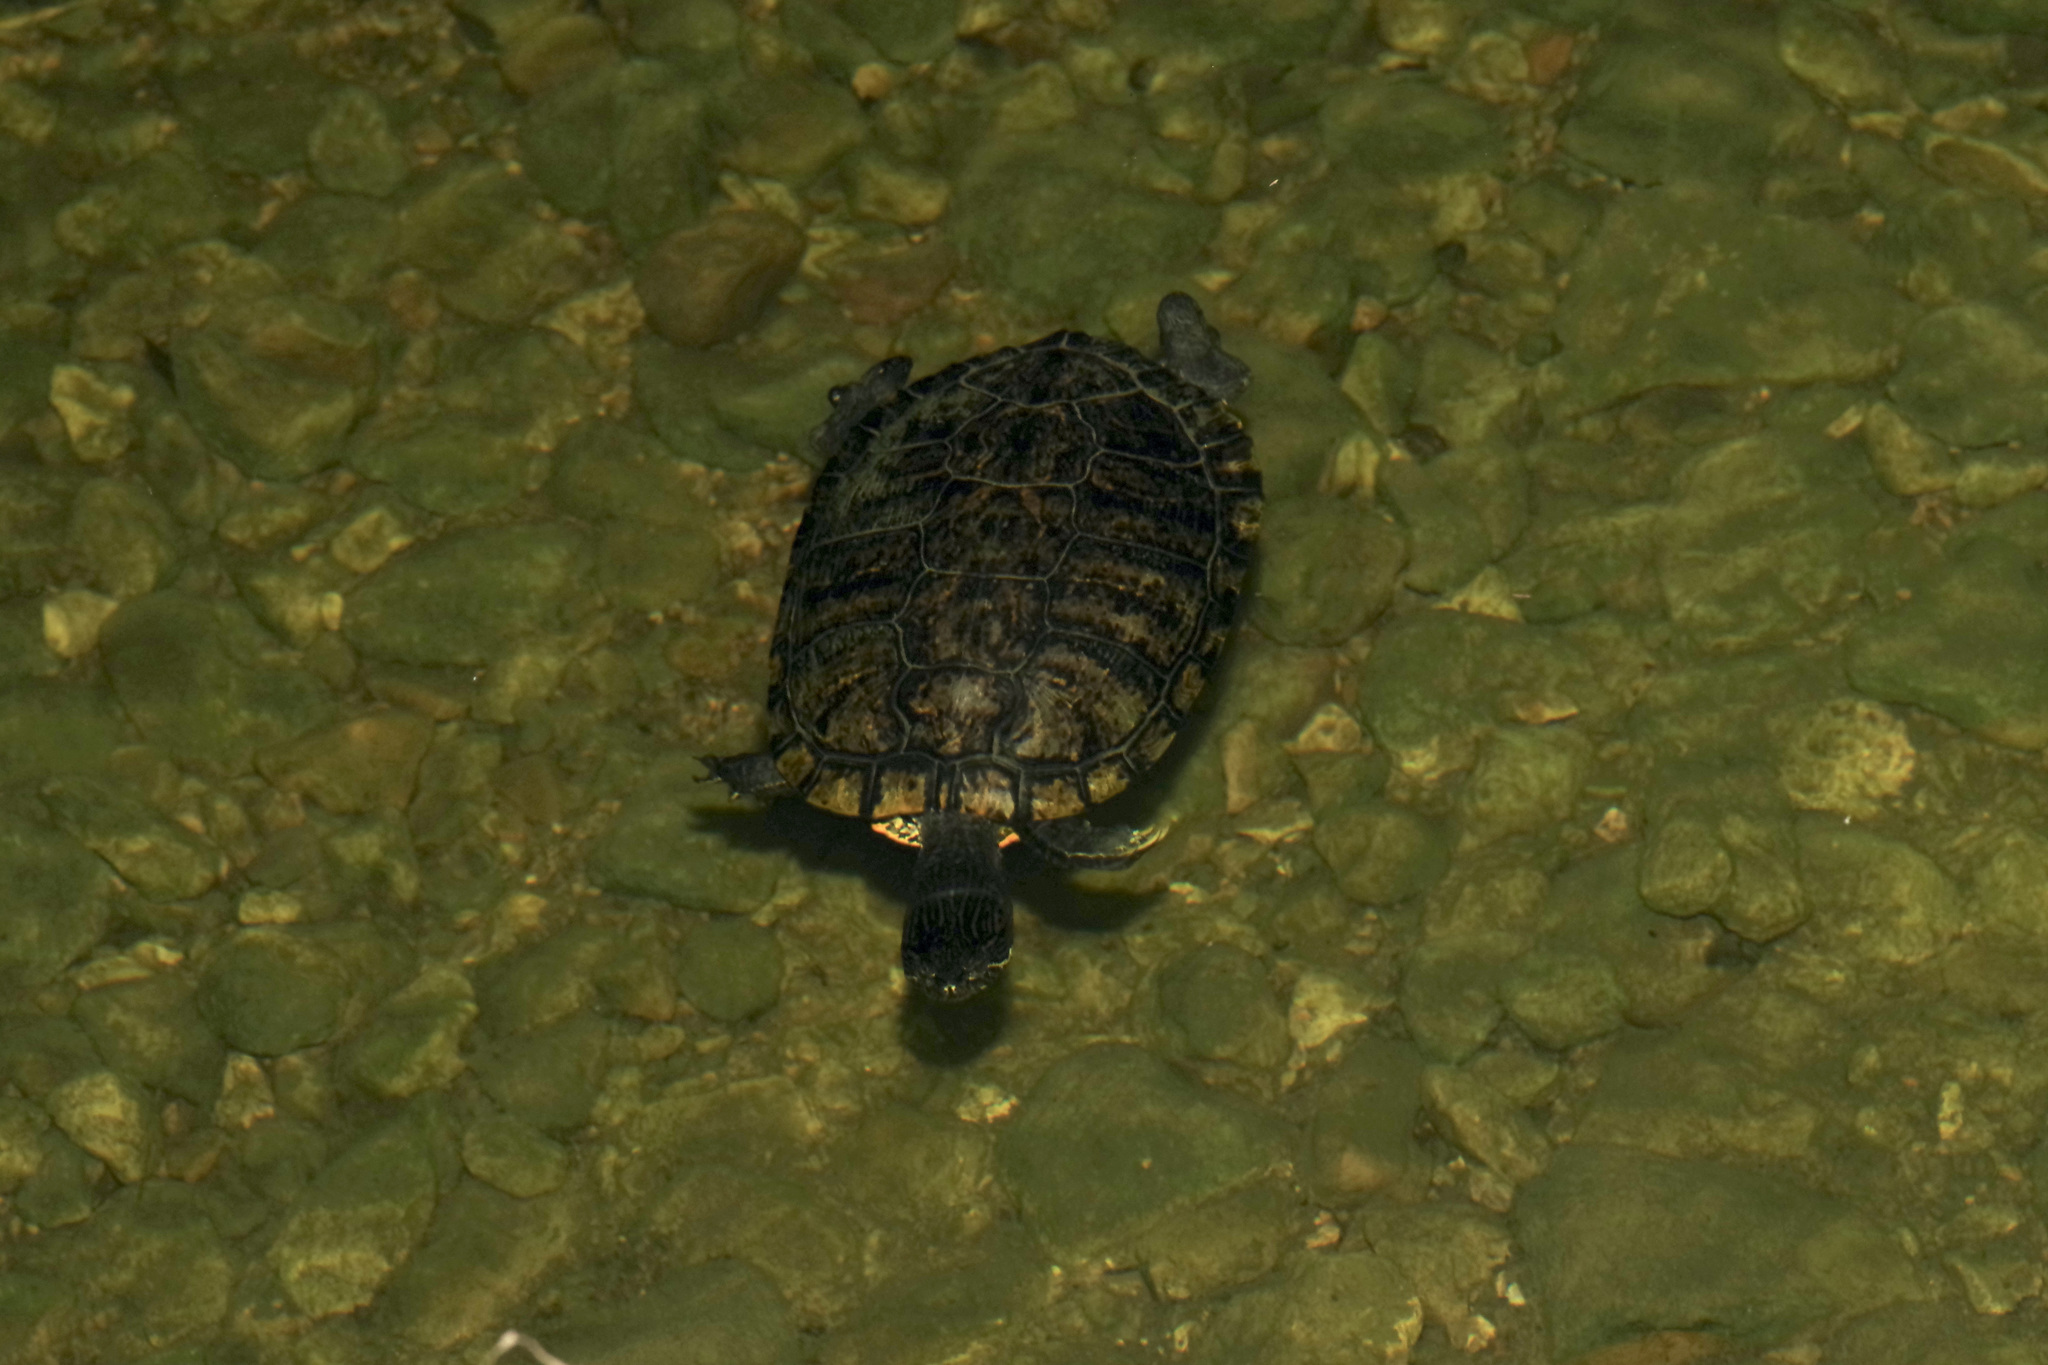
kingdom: Animalia
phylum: Chordata
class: Testudines
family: Emydidae
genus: Trachemys
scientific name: Trachemys scripta
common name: Slider
